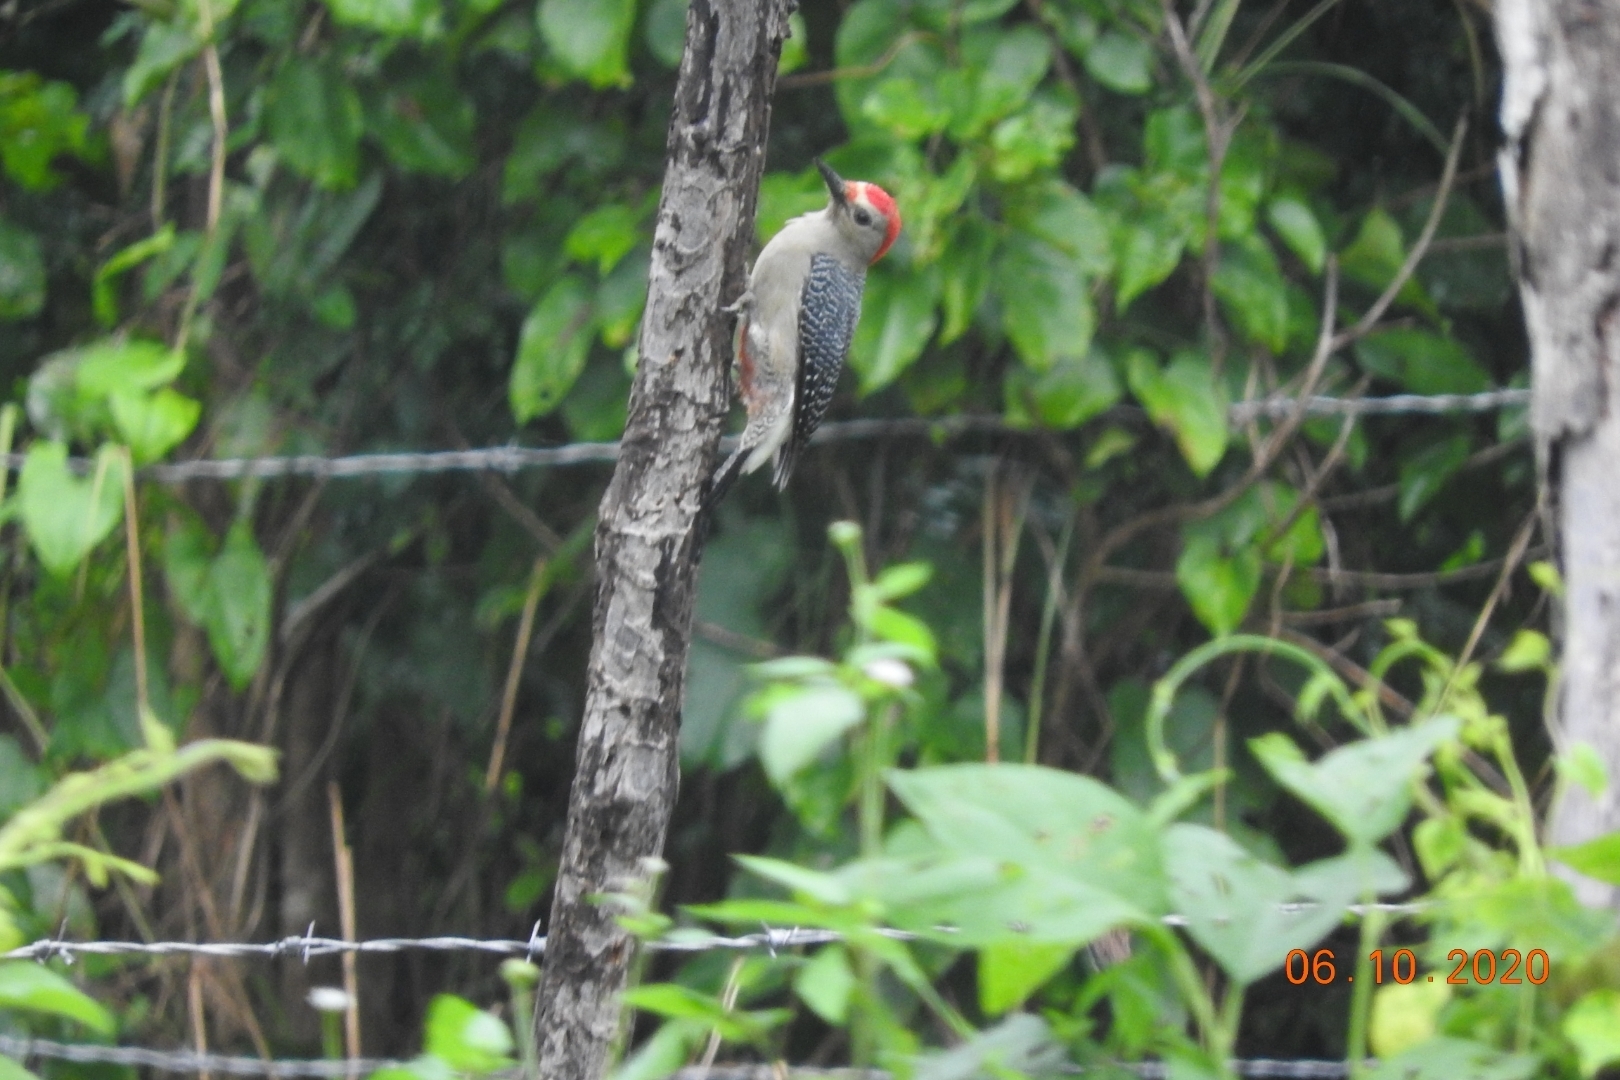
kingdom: Animalia
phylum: Chordata
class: Aves
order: Piciformes
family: Picidae
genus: Melanerpes
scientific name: Melanerpes aurifrons
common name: Golden-fronted woodpecker
